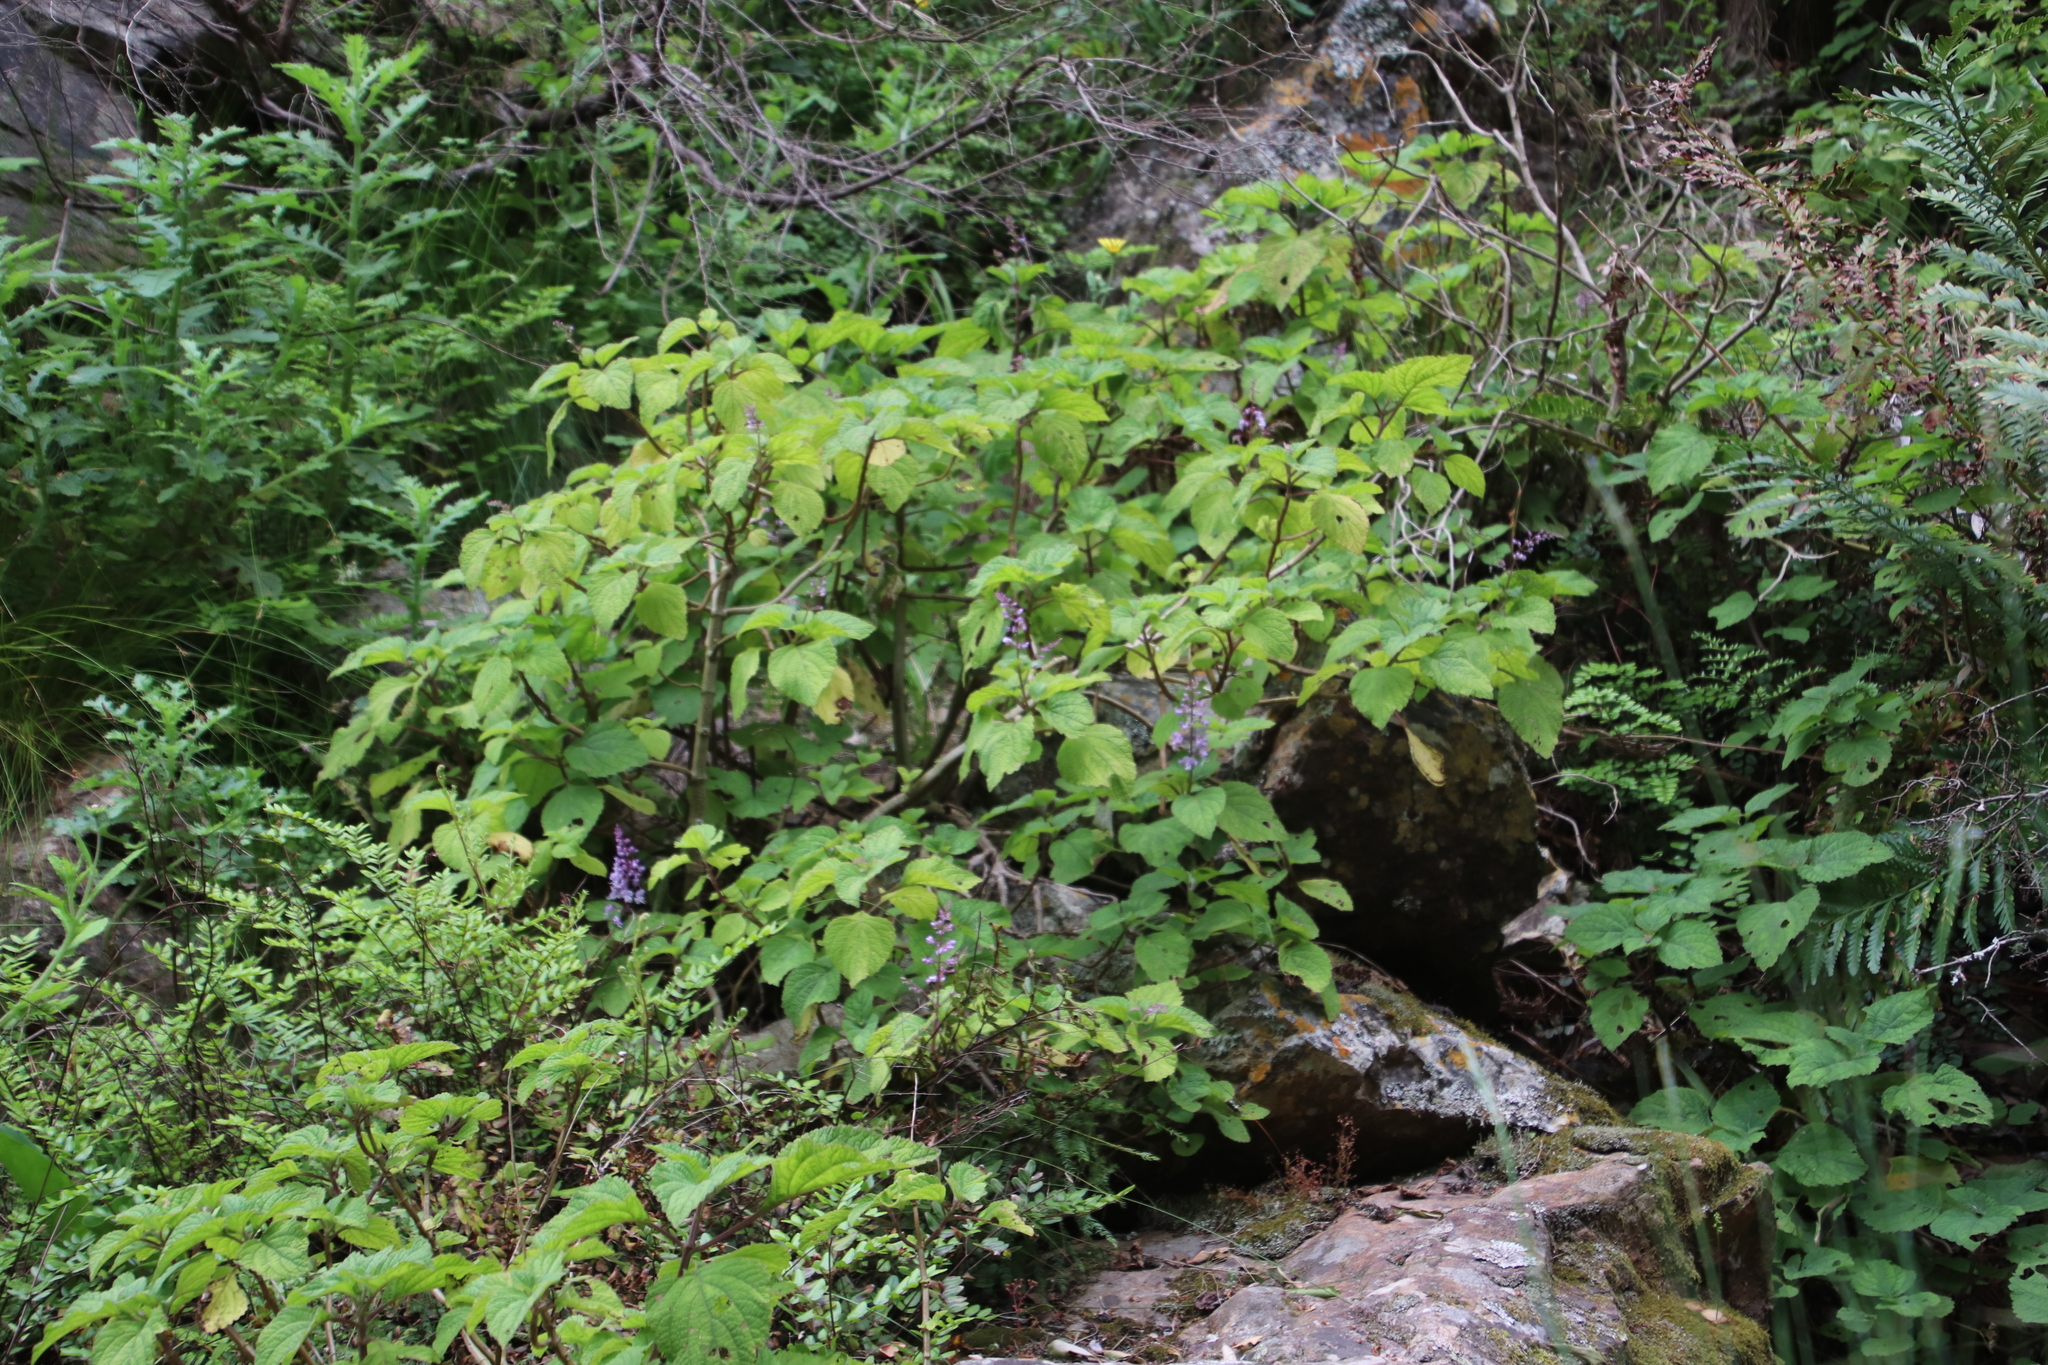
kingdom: Plantae
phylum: Tracheophyta
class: Magnoliopsida
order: Lamiales
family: Lamiaceae
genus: Plectranthus
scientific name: Plectranthus fruticosus
